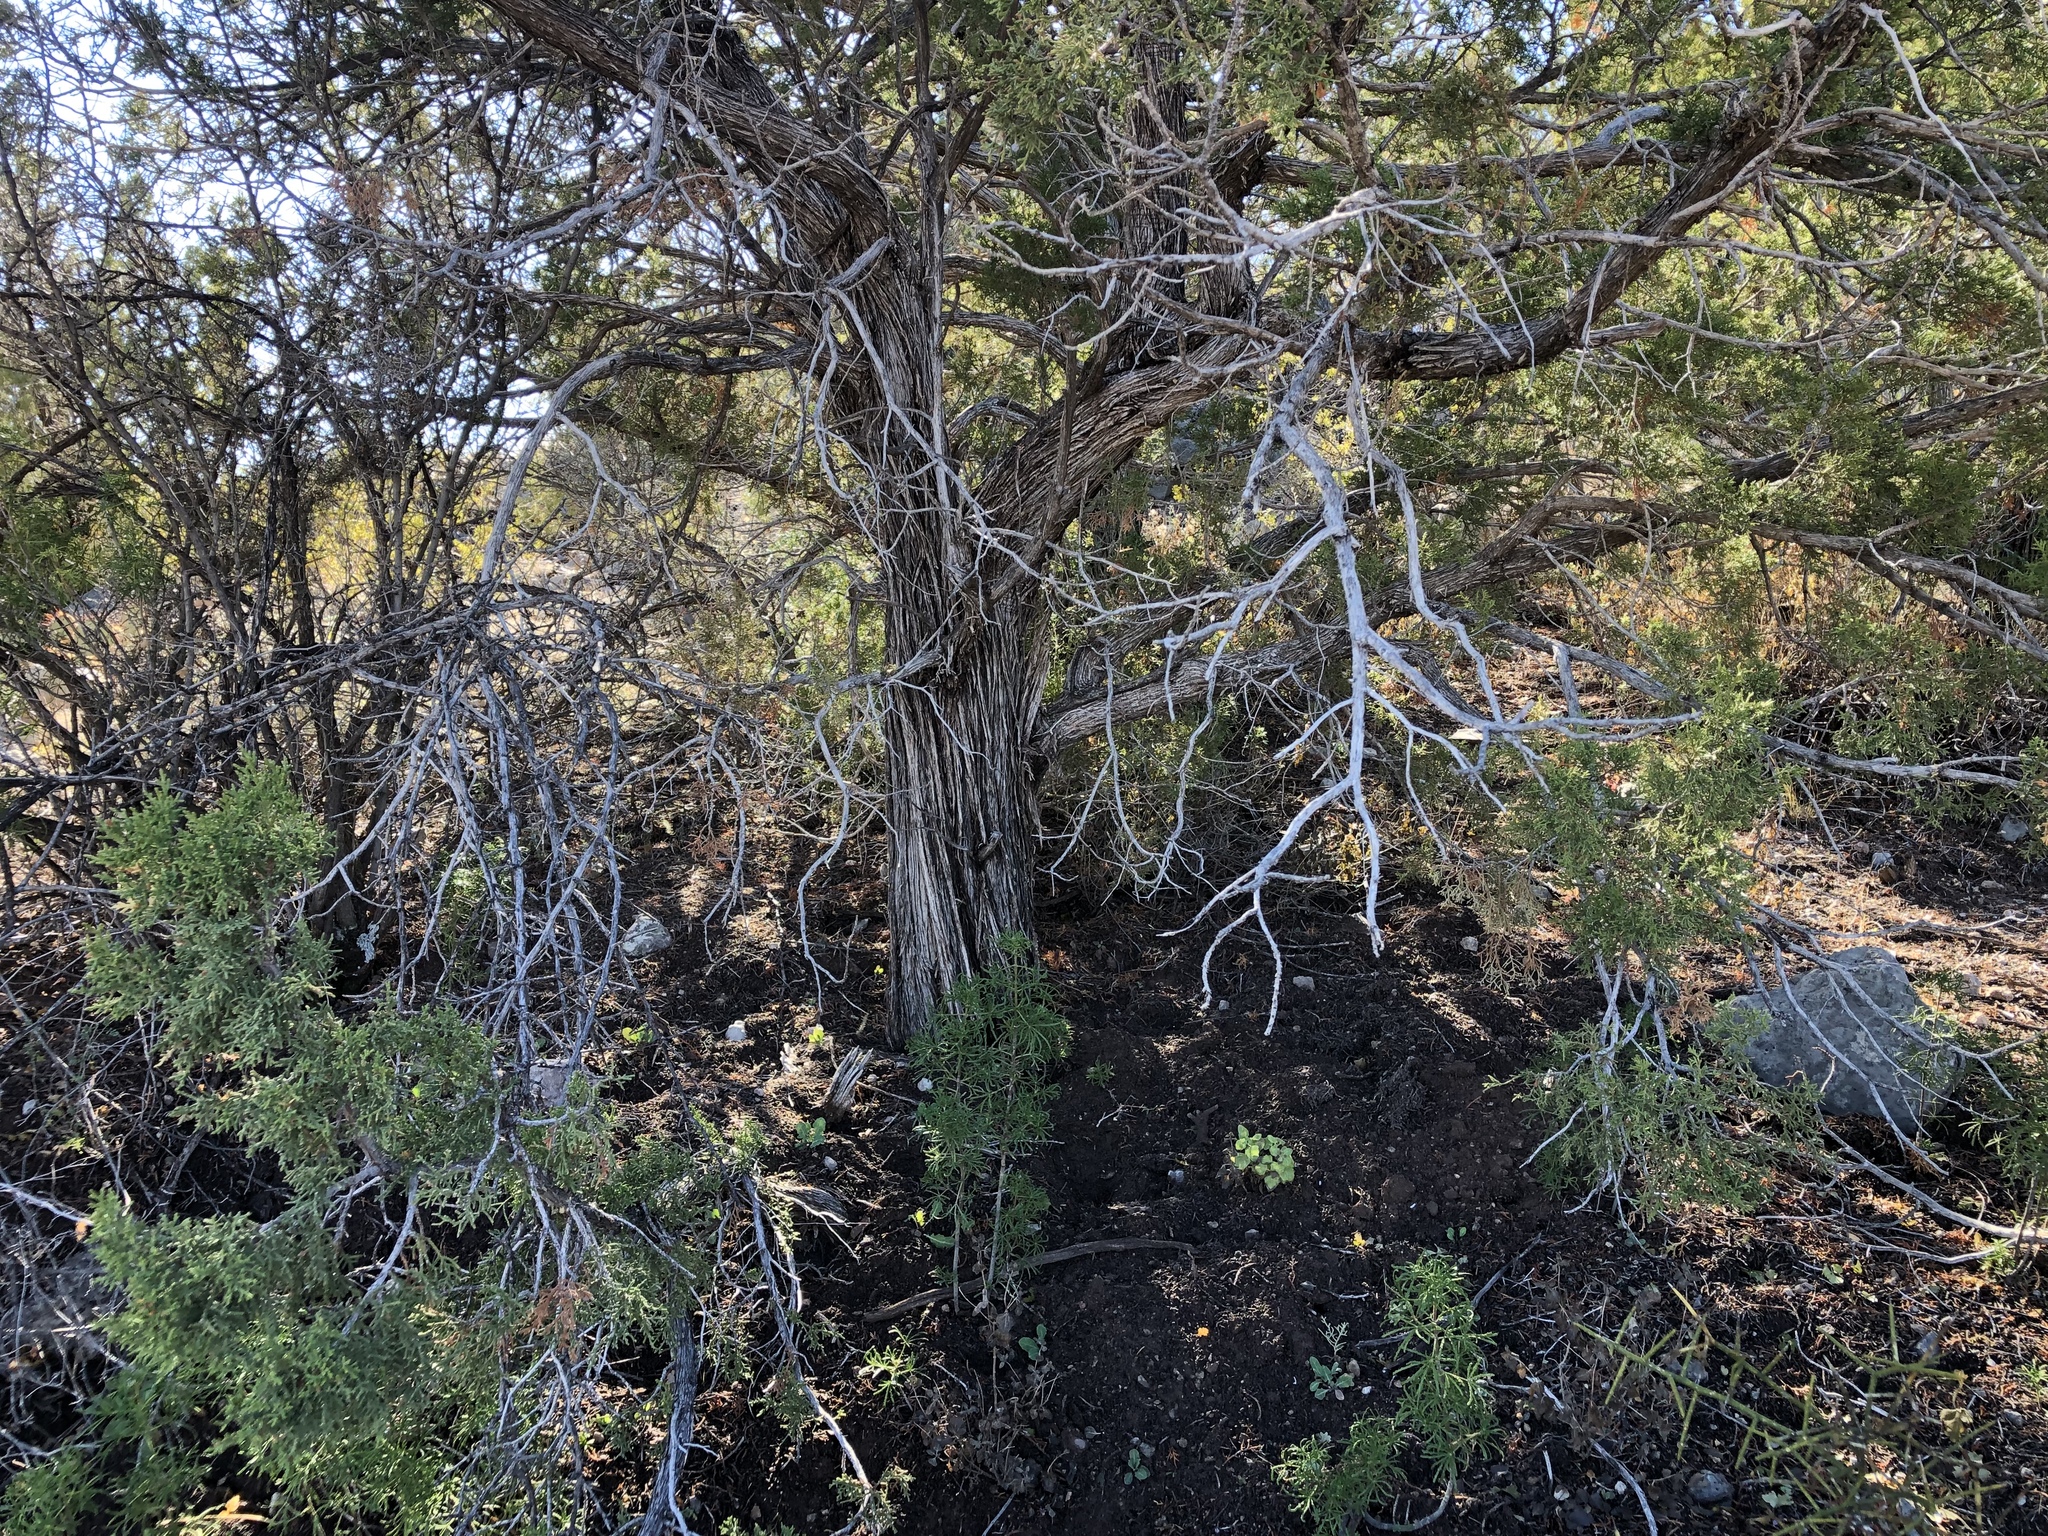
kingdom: Plantae
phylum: Tracheophyta
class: Pinopsida
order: Pinales
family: Cupressaceae
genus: Juniperus
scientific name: Juniperus monosperma
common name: One-seed juniper
